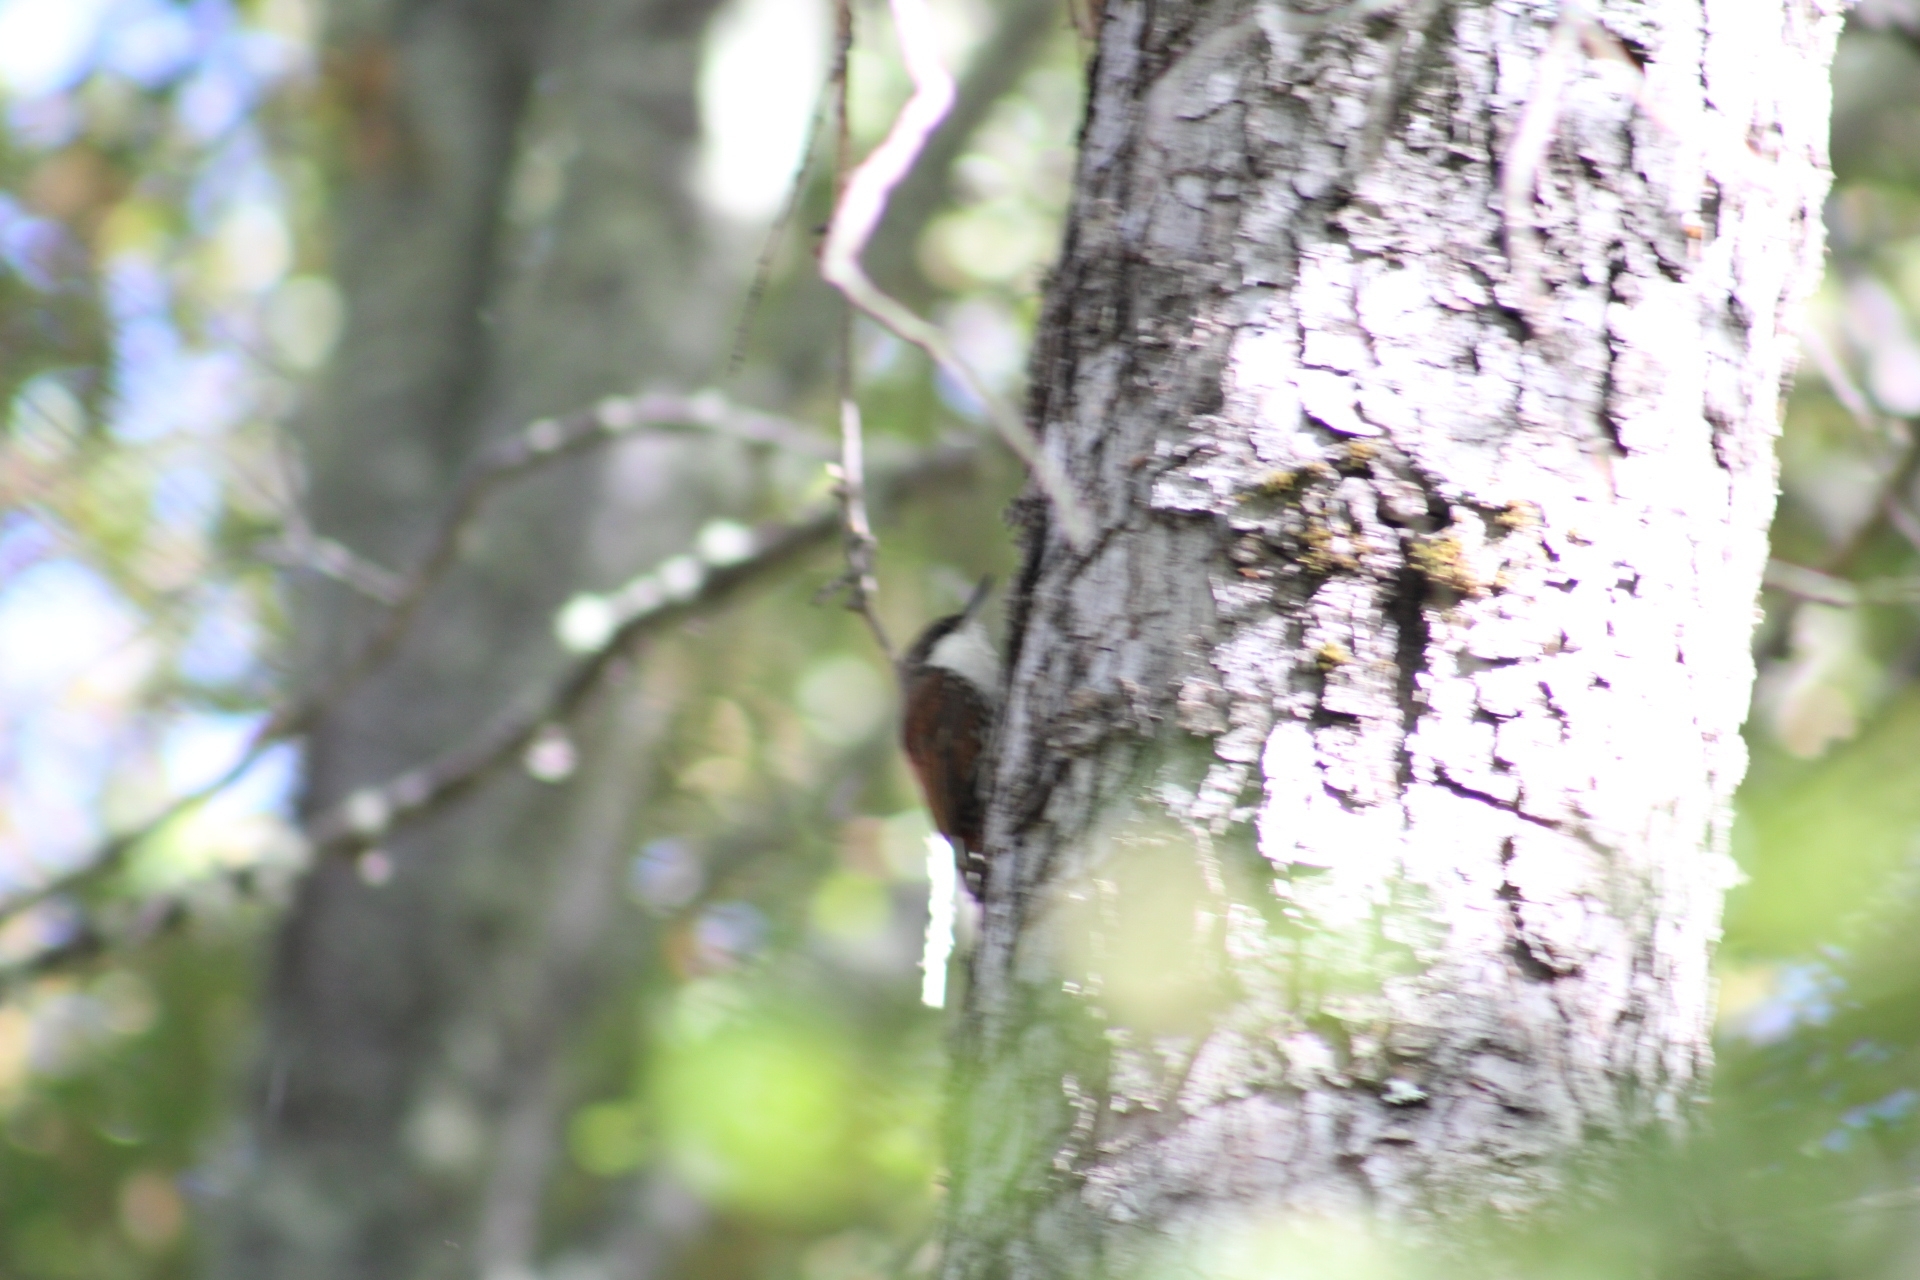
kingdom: Animalia
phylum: Chordata
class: Aves
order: Passeriformes
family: Furnariidae
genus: Pygarrhichas
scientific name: Pygarrhichas albogularis
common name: White-throated treerunner
